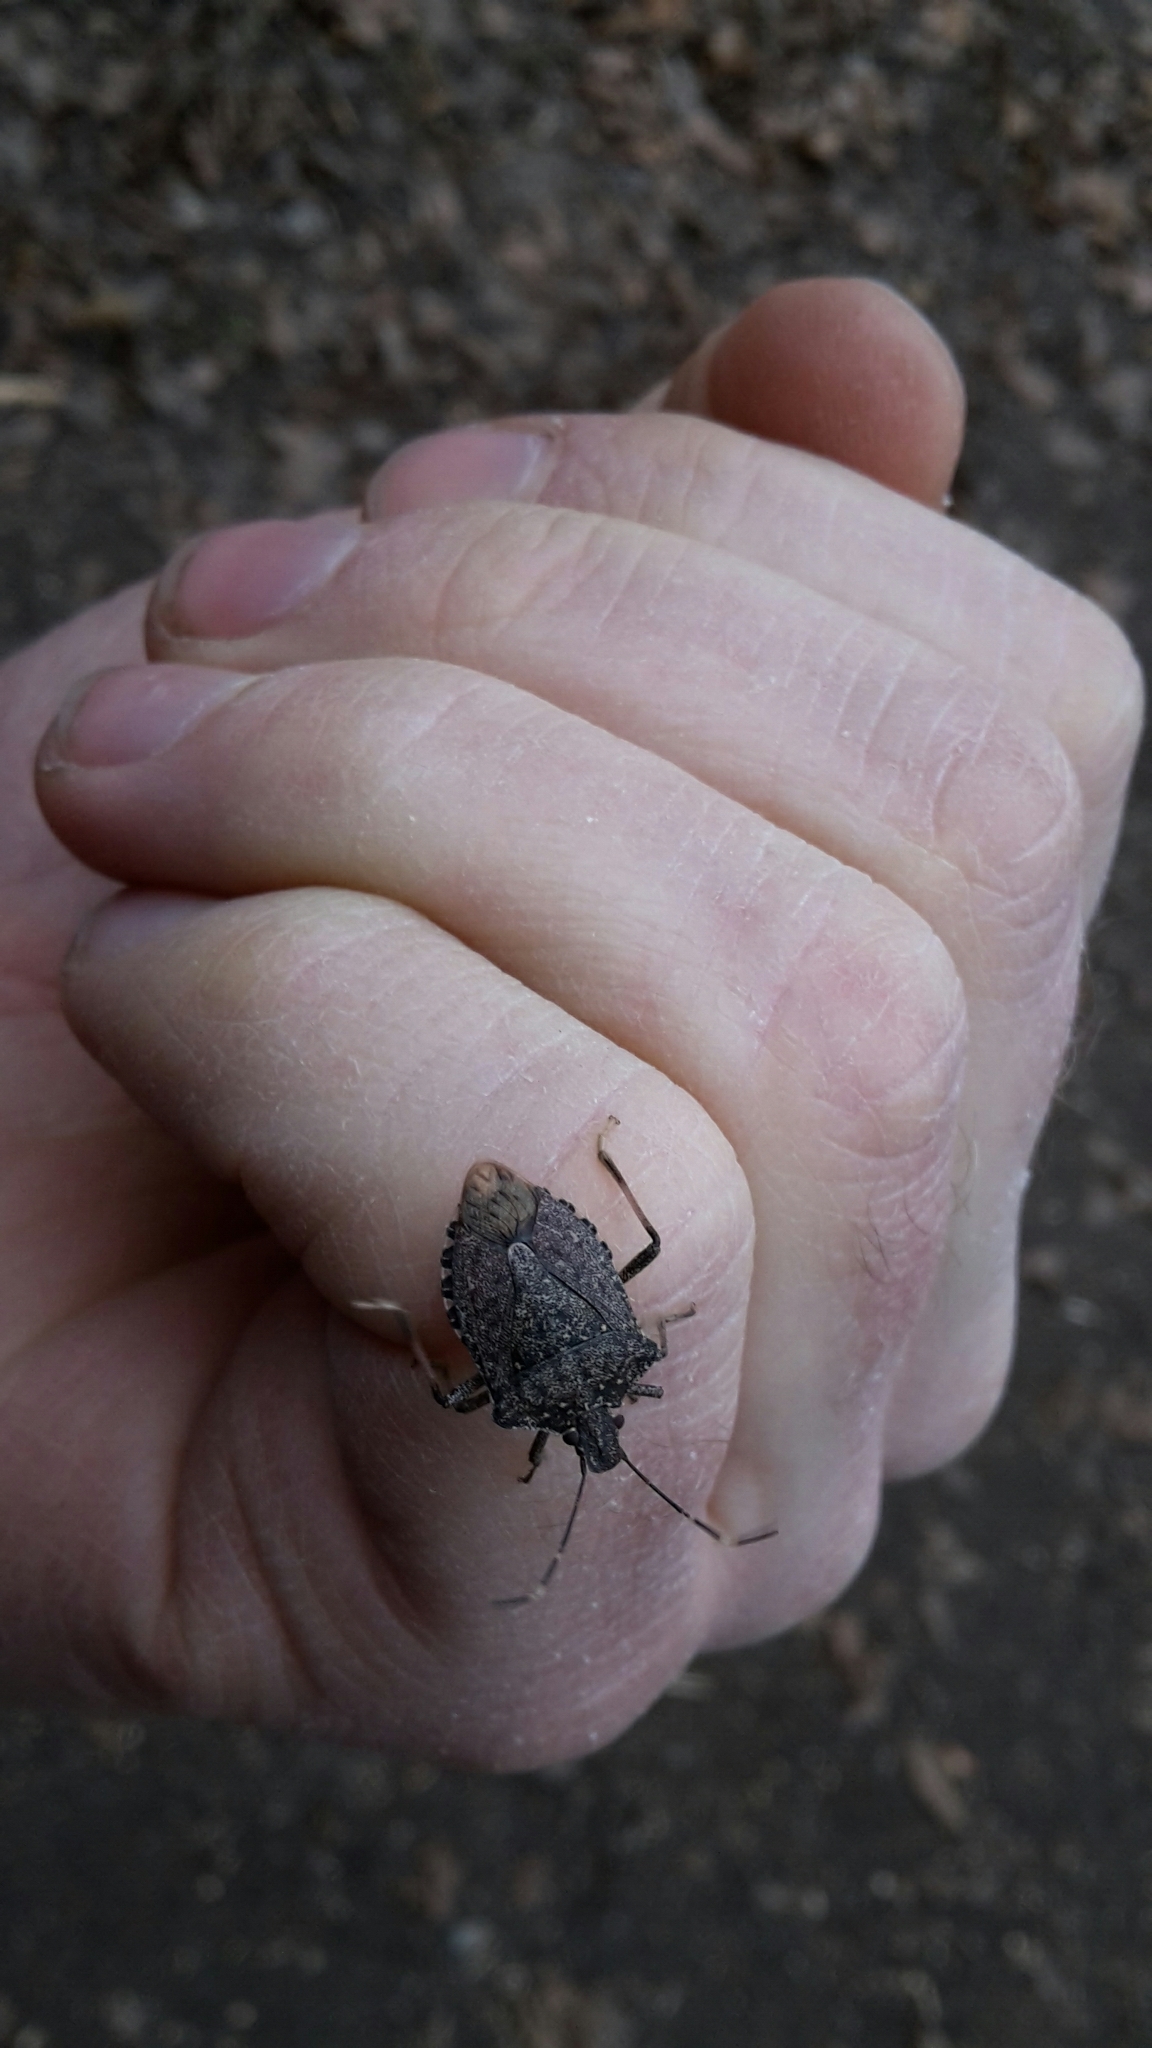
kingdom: Animalia
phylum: Arthropoda
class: Insecta
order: Hemiptera
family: Pentatomidae
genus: Halyomorpha
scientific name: Halyomorpha halys
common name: Brown marmorated stink bug
